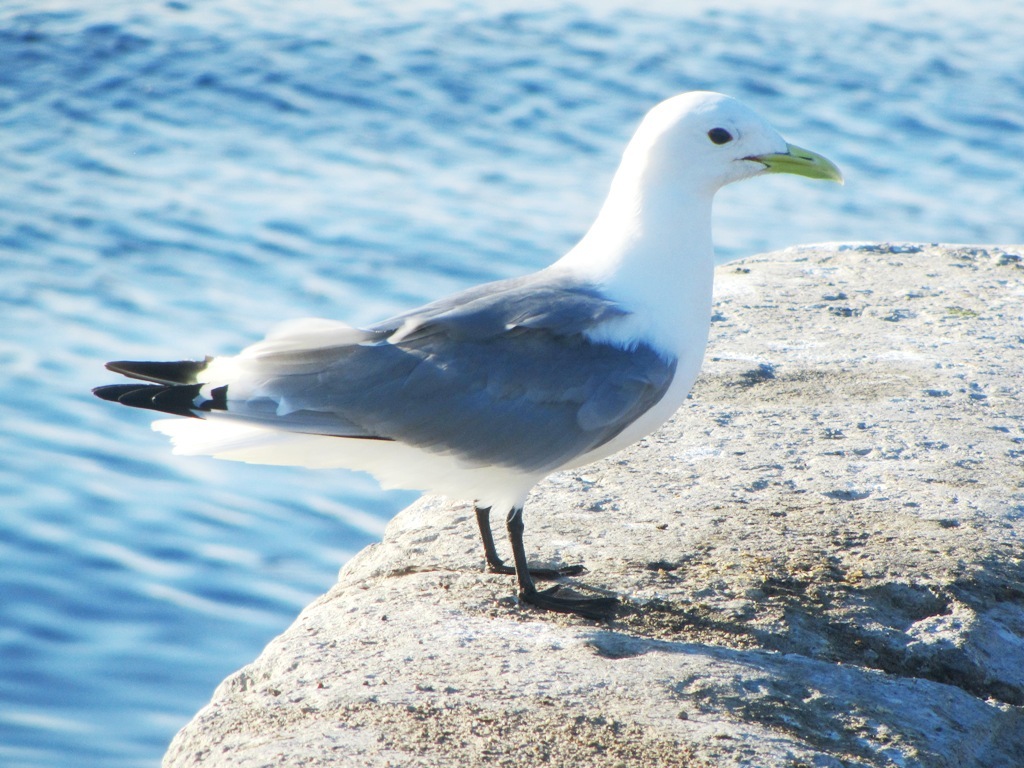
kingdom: Animalia
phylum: Chordata
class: Aves
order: Charadriiformes
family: Laridae
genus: Rissa
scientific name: Rissa tridactyla
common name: Black-legged kittiwake
